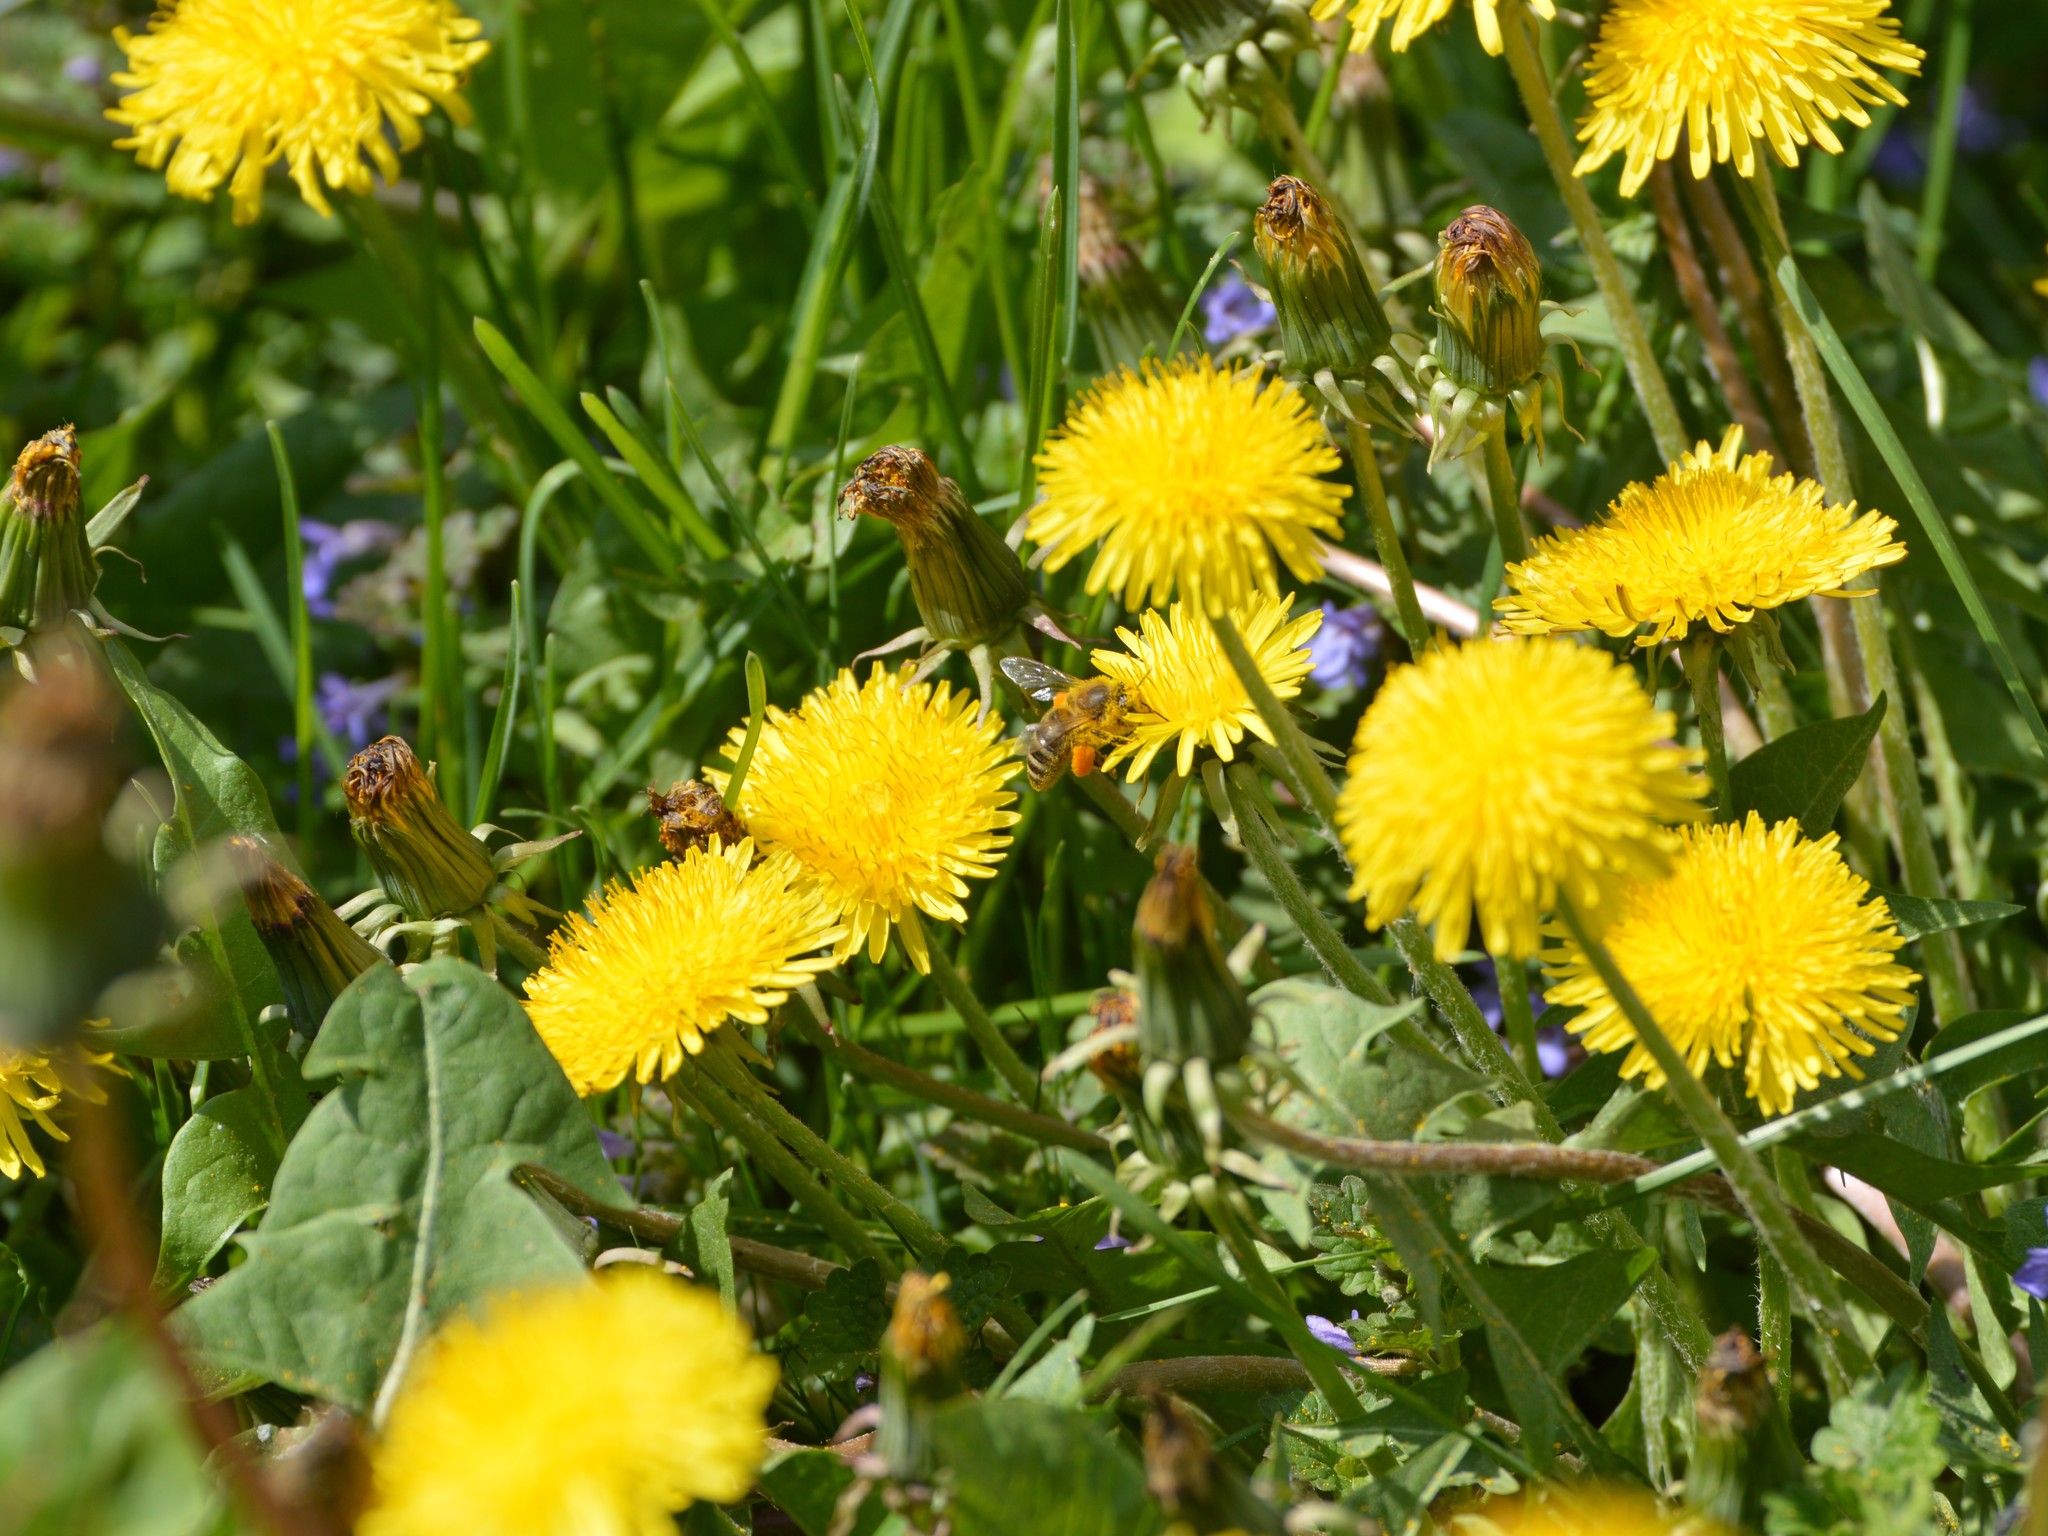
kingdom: Animalia
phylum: Arthropoda
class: Insecta
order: Hymenoptera
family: Apidae
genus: Apis
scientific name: Apis mellifera
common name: Honey bee
